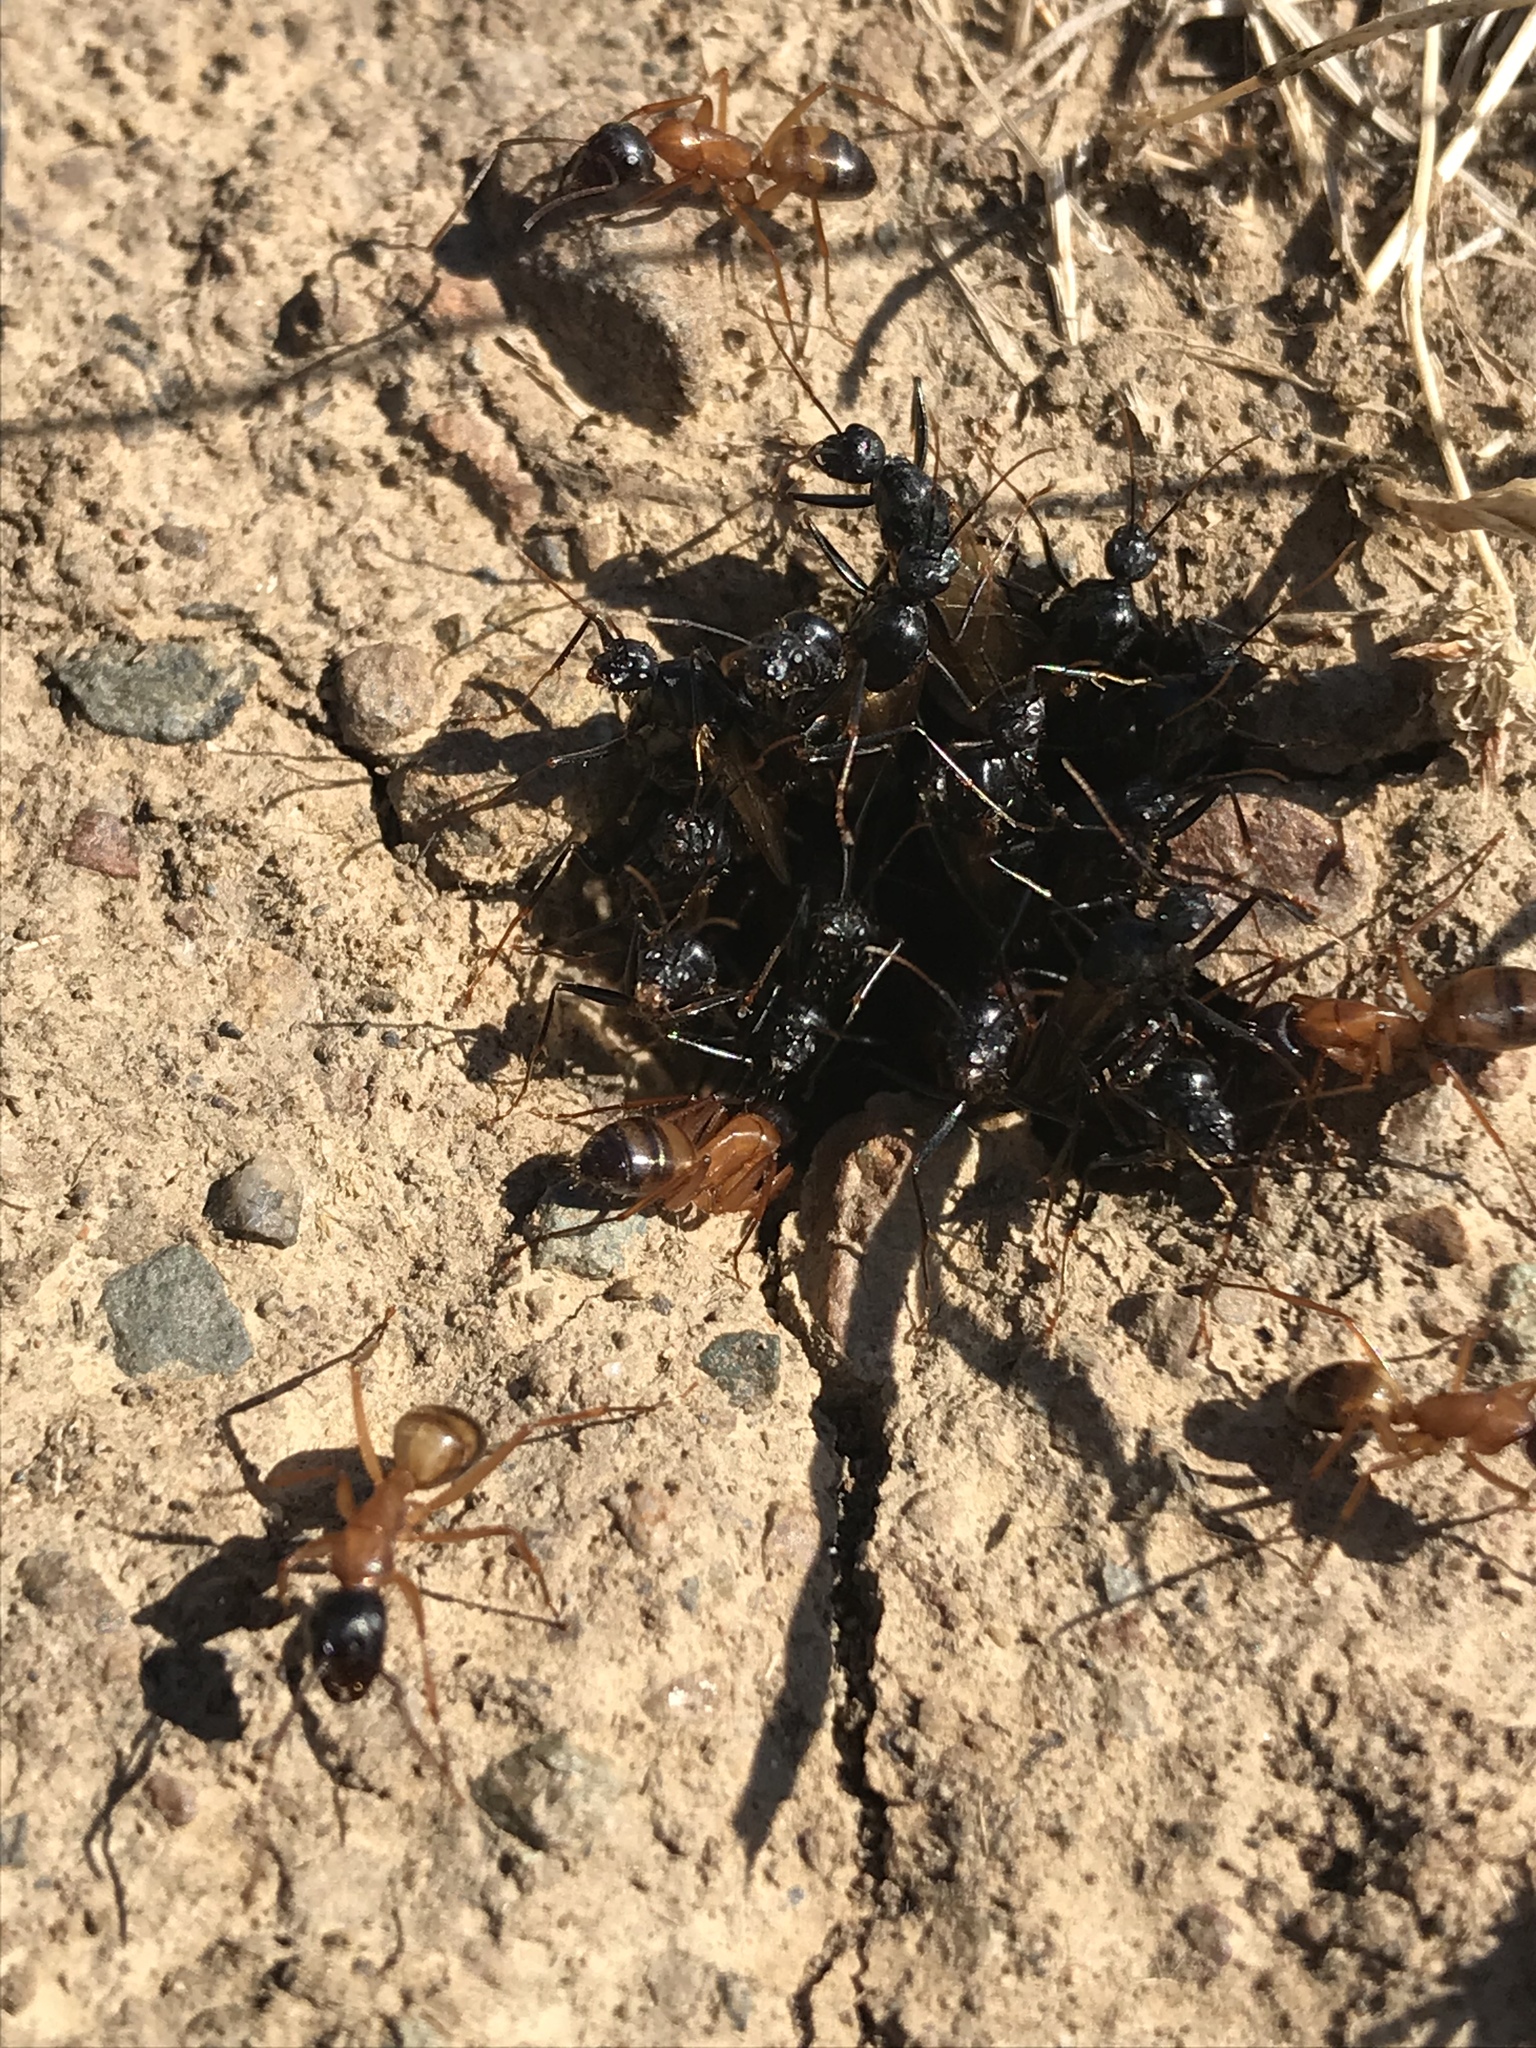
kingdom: Animalia
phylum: Arthropoda
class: Insecta
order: Hymenoptera
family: Formicidae
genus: Camponotus
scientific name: Camponotus semitestaceus
